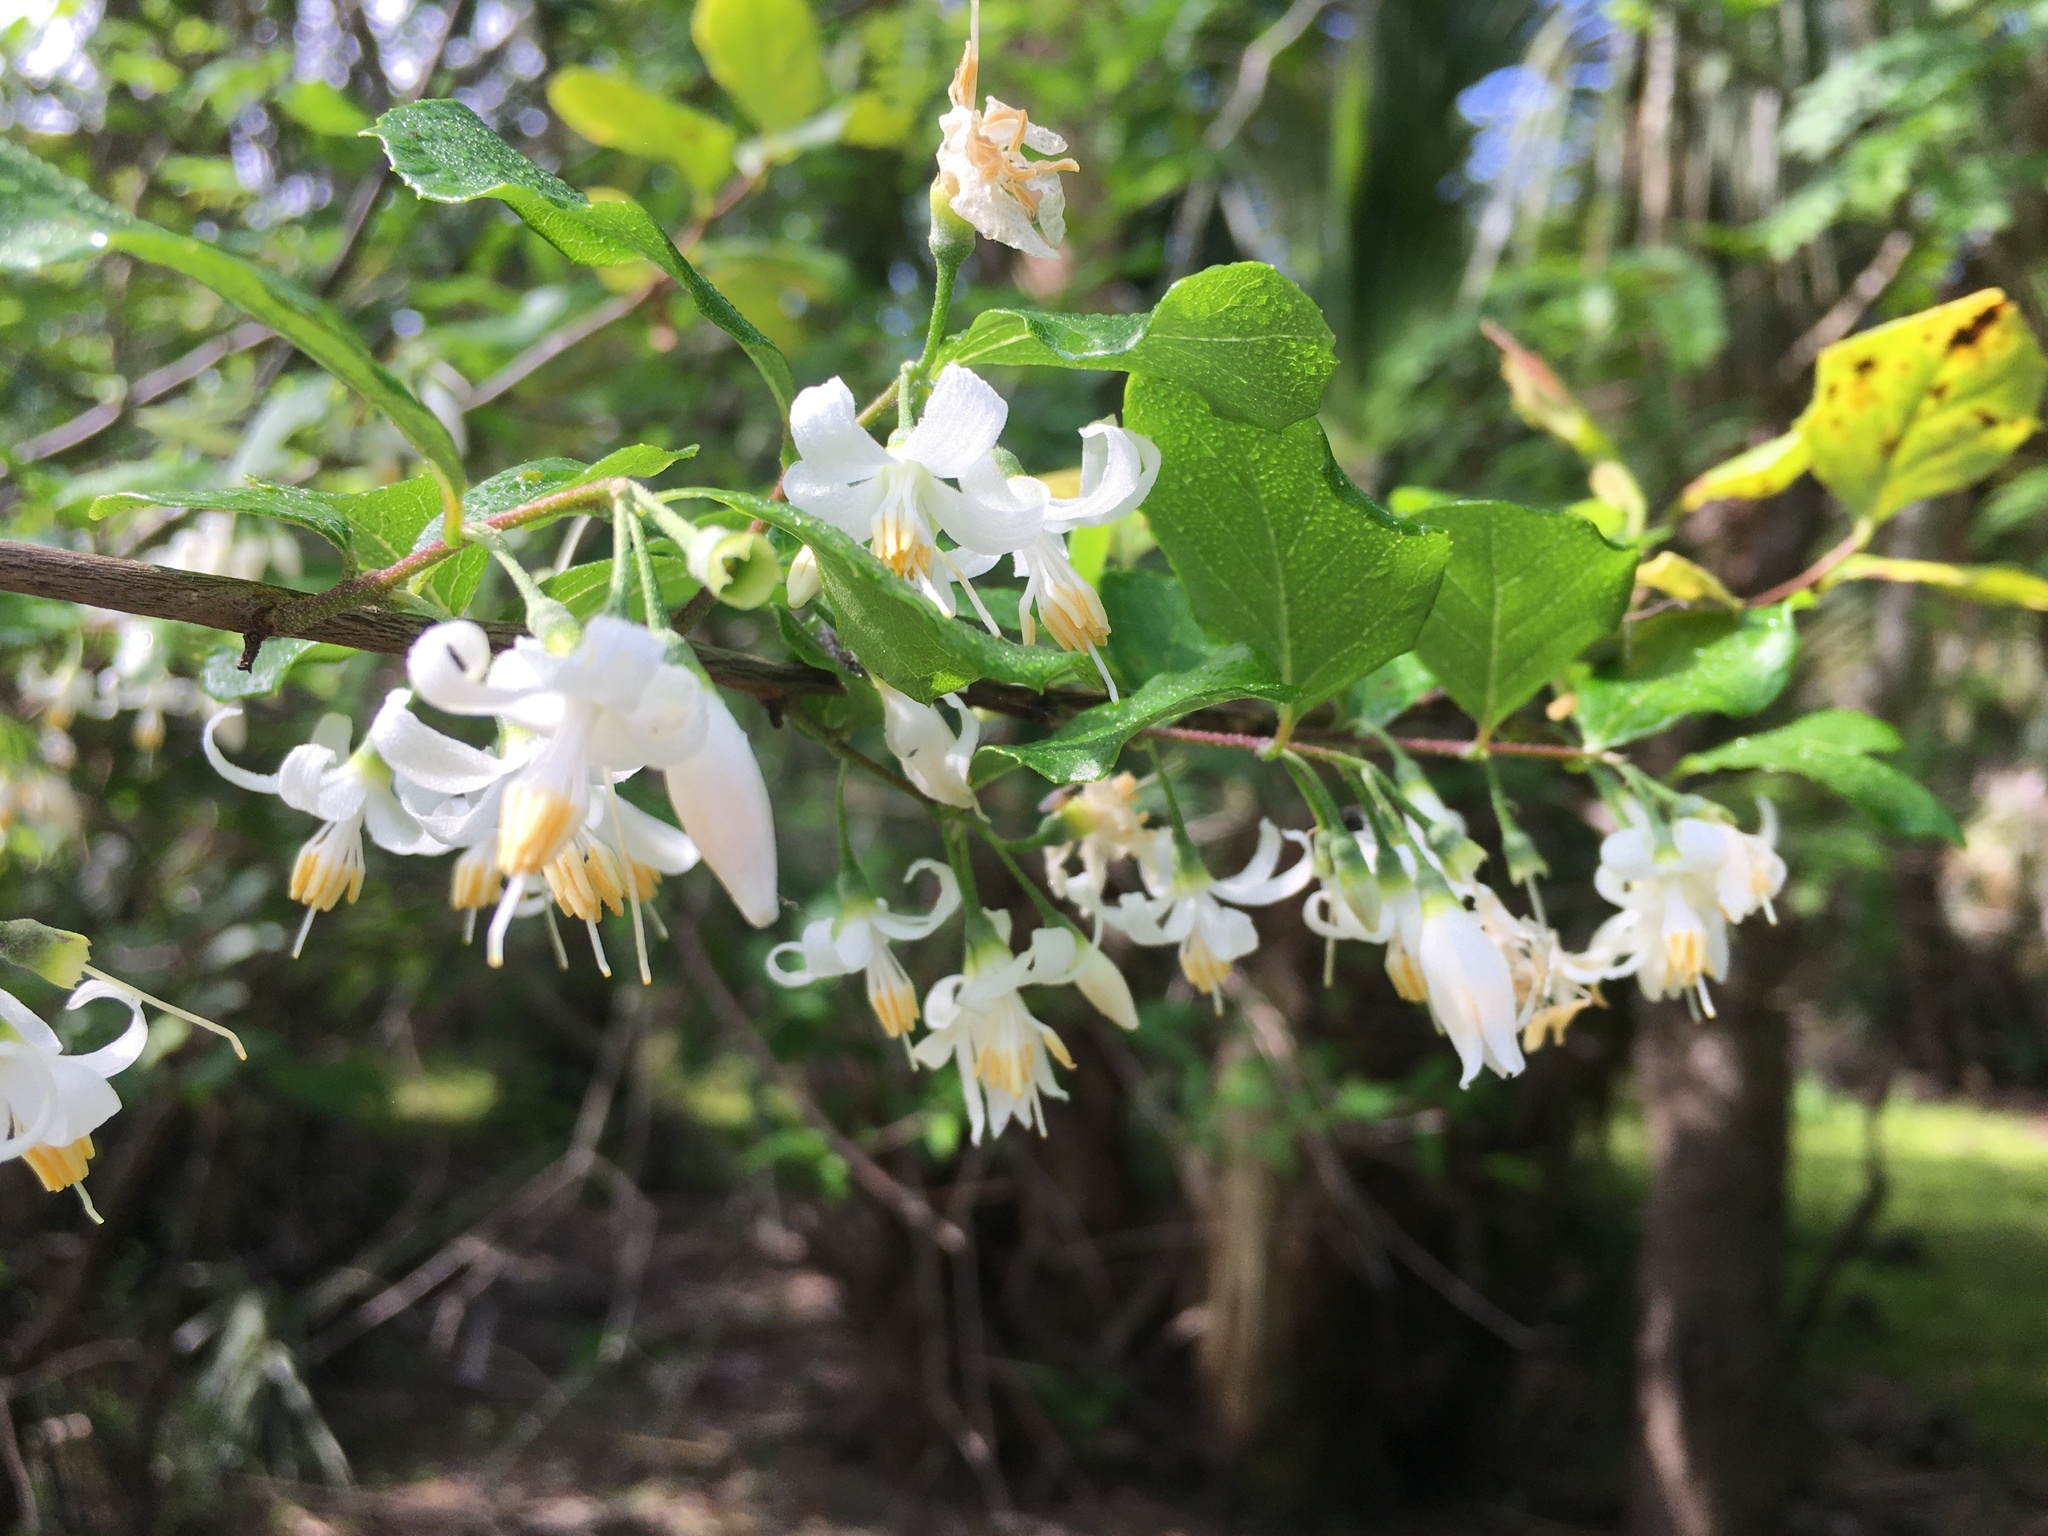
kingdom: Plantae
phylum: Tracheophyta
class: Magnoliopsida
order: Ericales
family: Styracaceae
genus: Styrax
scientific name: Styrax americanus
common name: American snowbell
